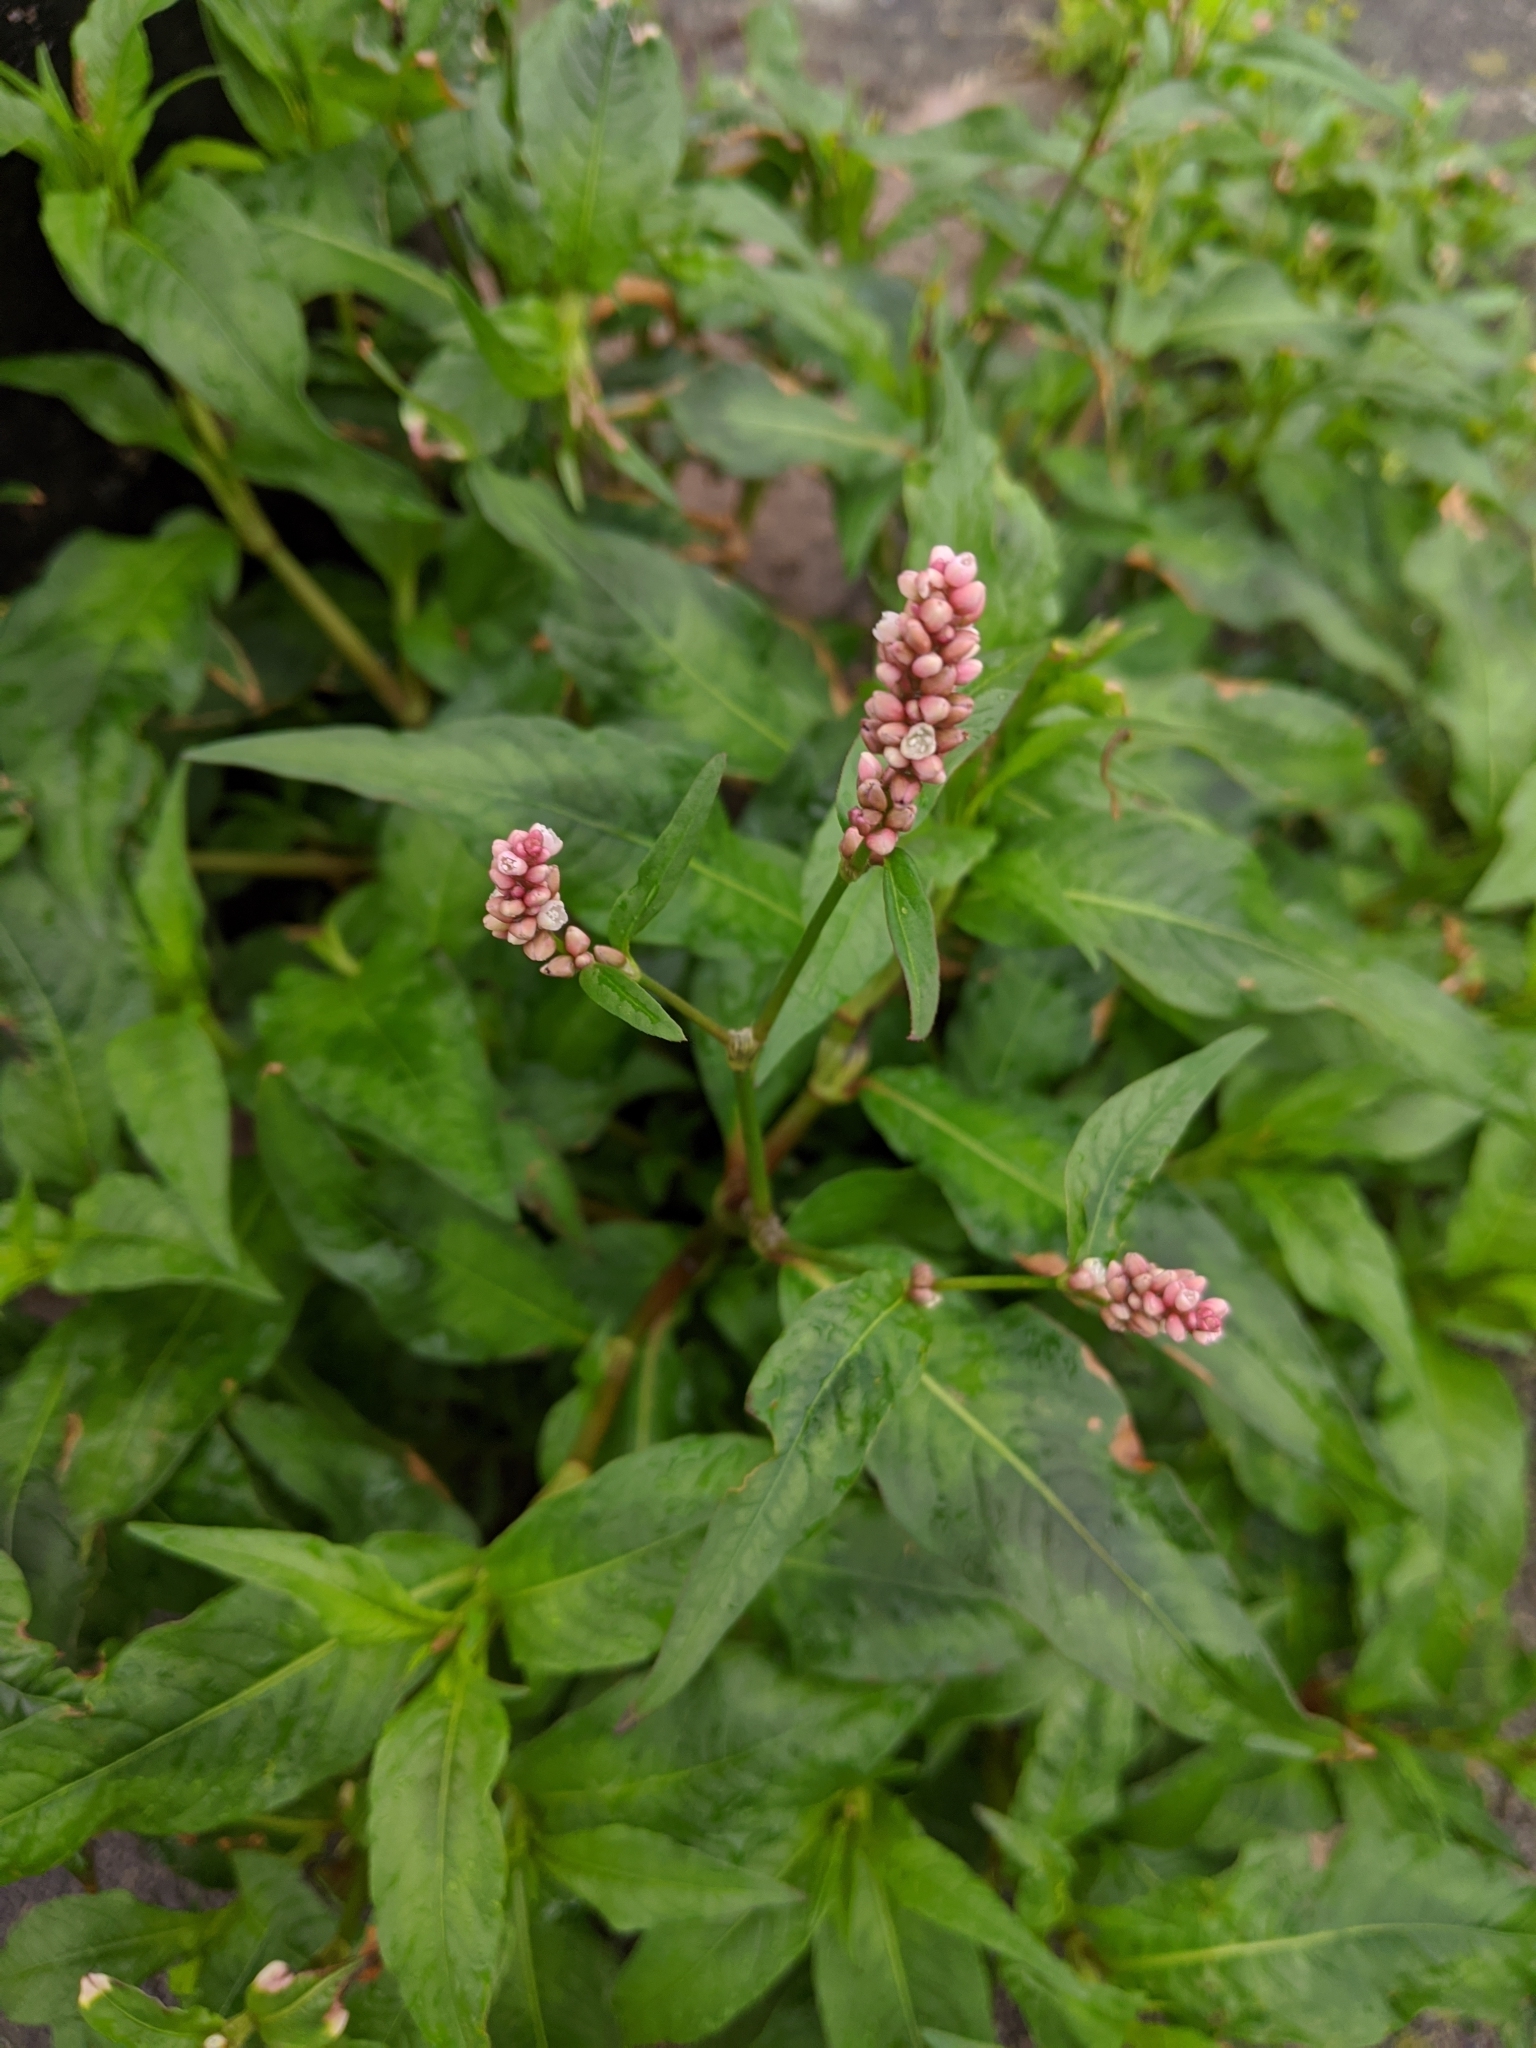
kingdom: Plantae
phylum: Tracheophyta
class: Magnoliopsida
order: Caryophyllales
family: Polygonaceae
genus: Persicaria
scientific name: Persicaria maculosa
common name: Redshank
